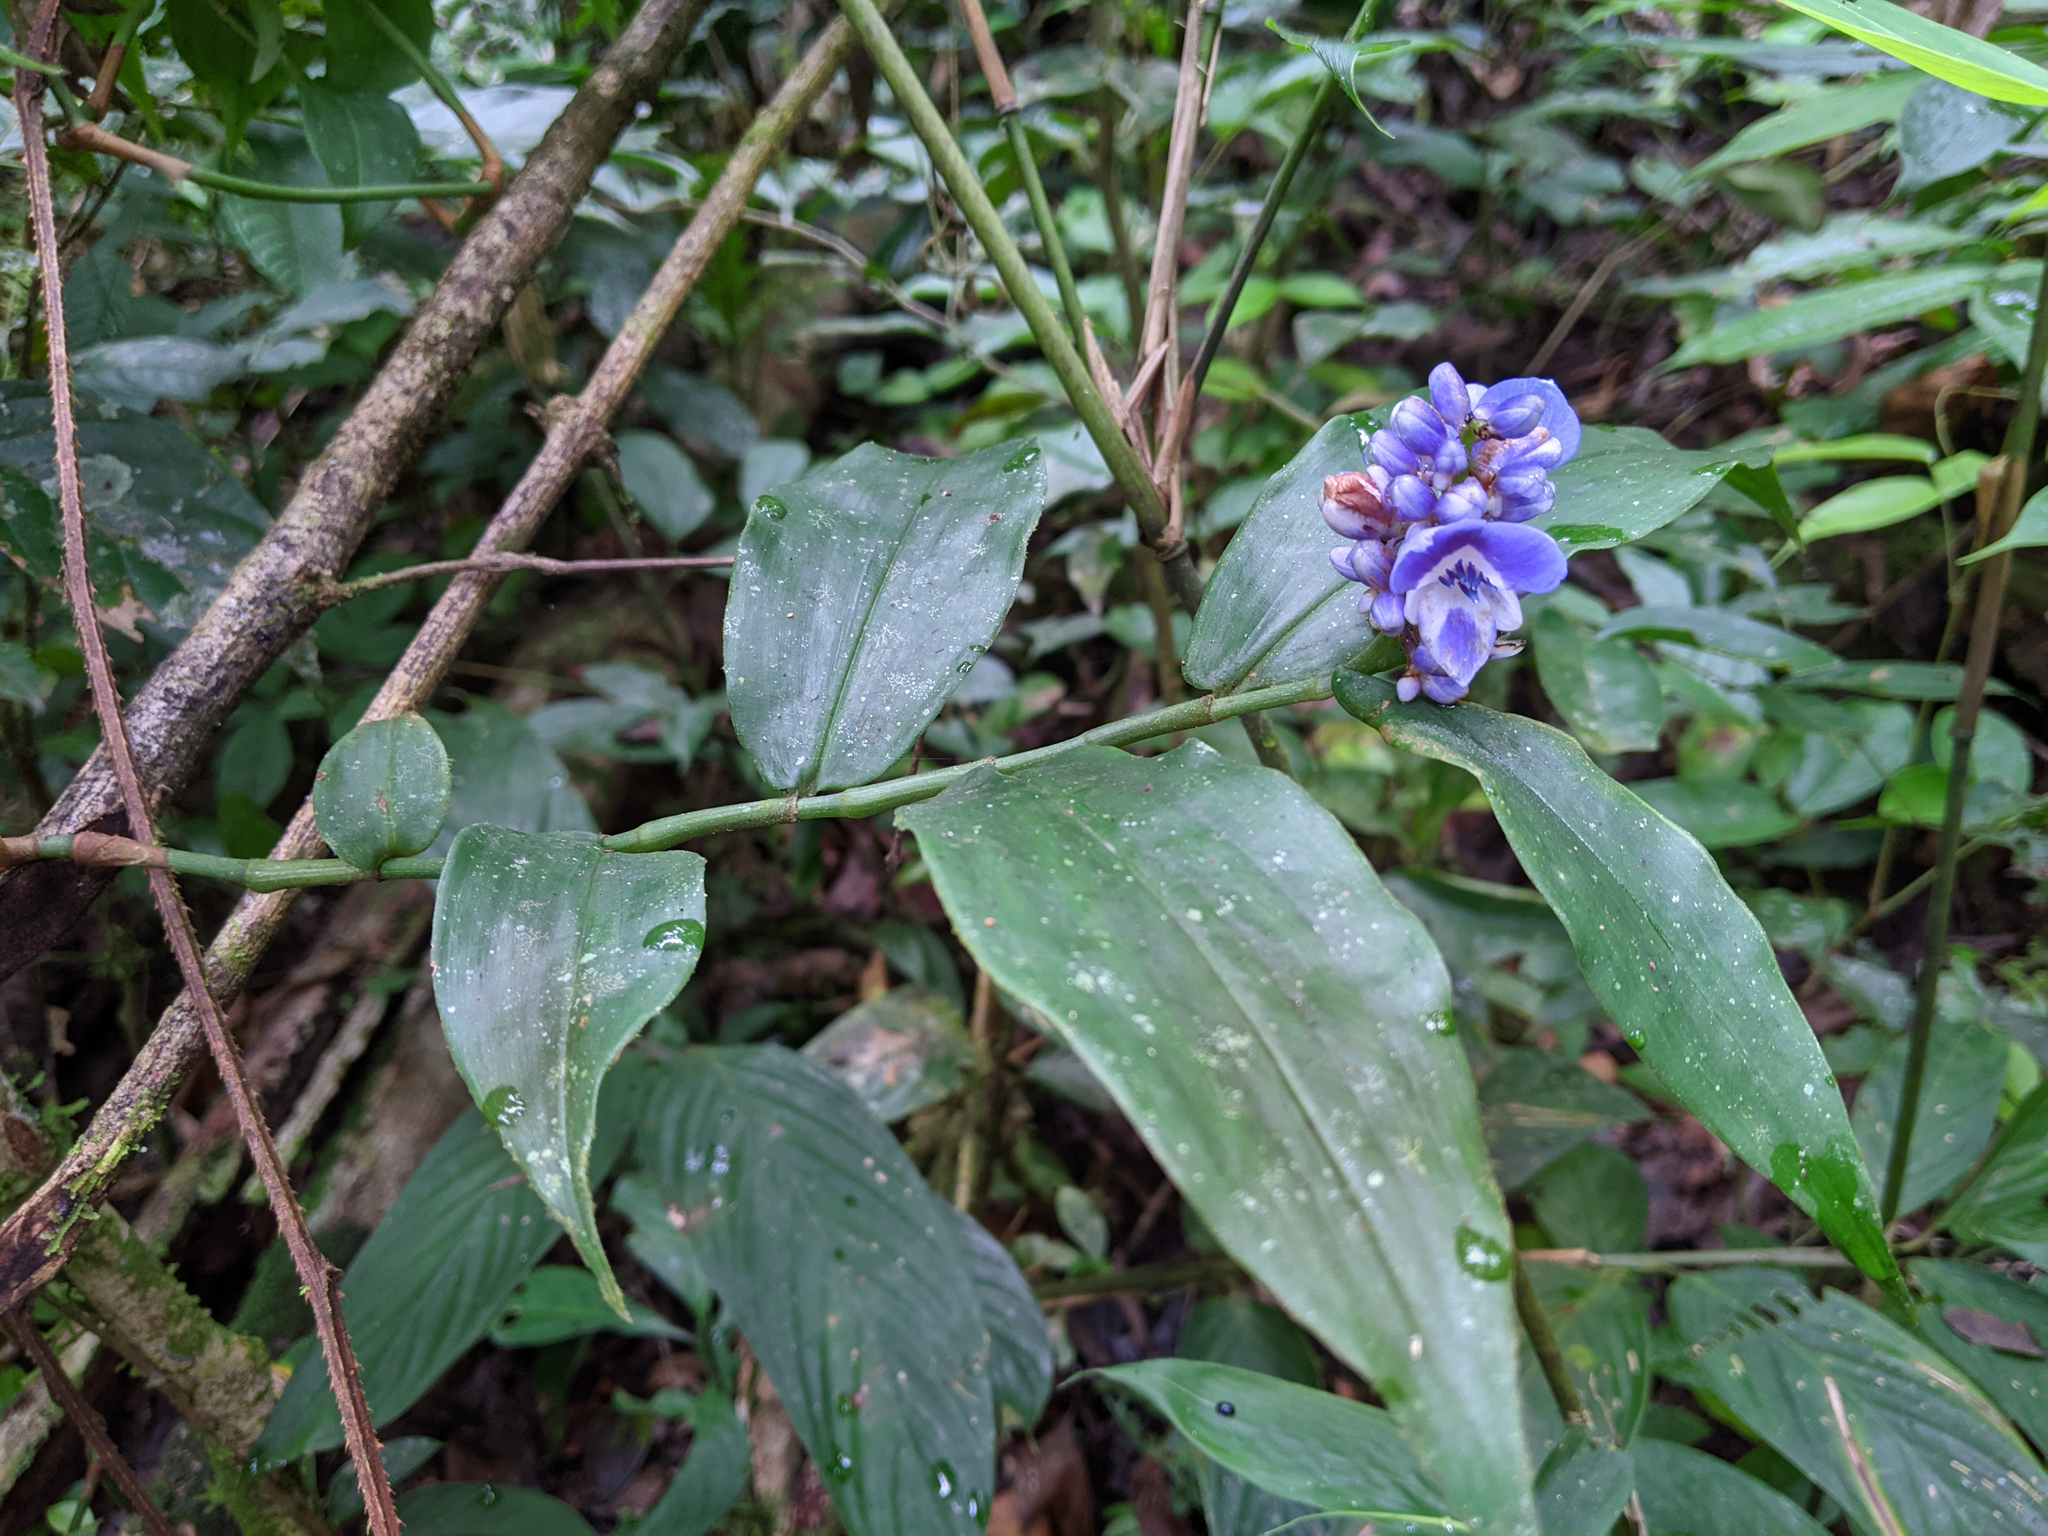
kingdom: Plantae
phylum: Tracheophyta
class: Liliopsida
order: Commelinales
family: Commelinaceae
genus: Dichorisandra
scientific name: Dichorisandra ulei
